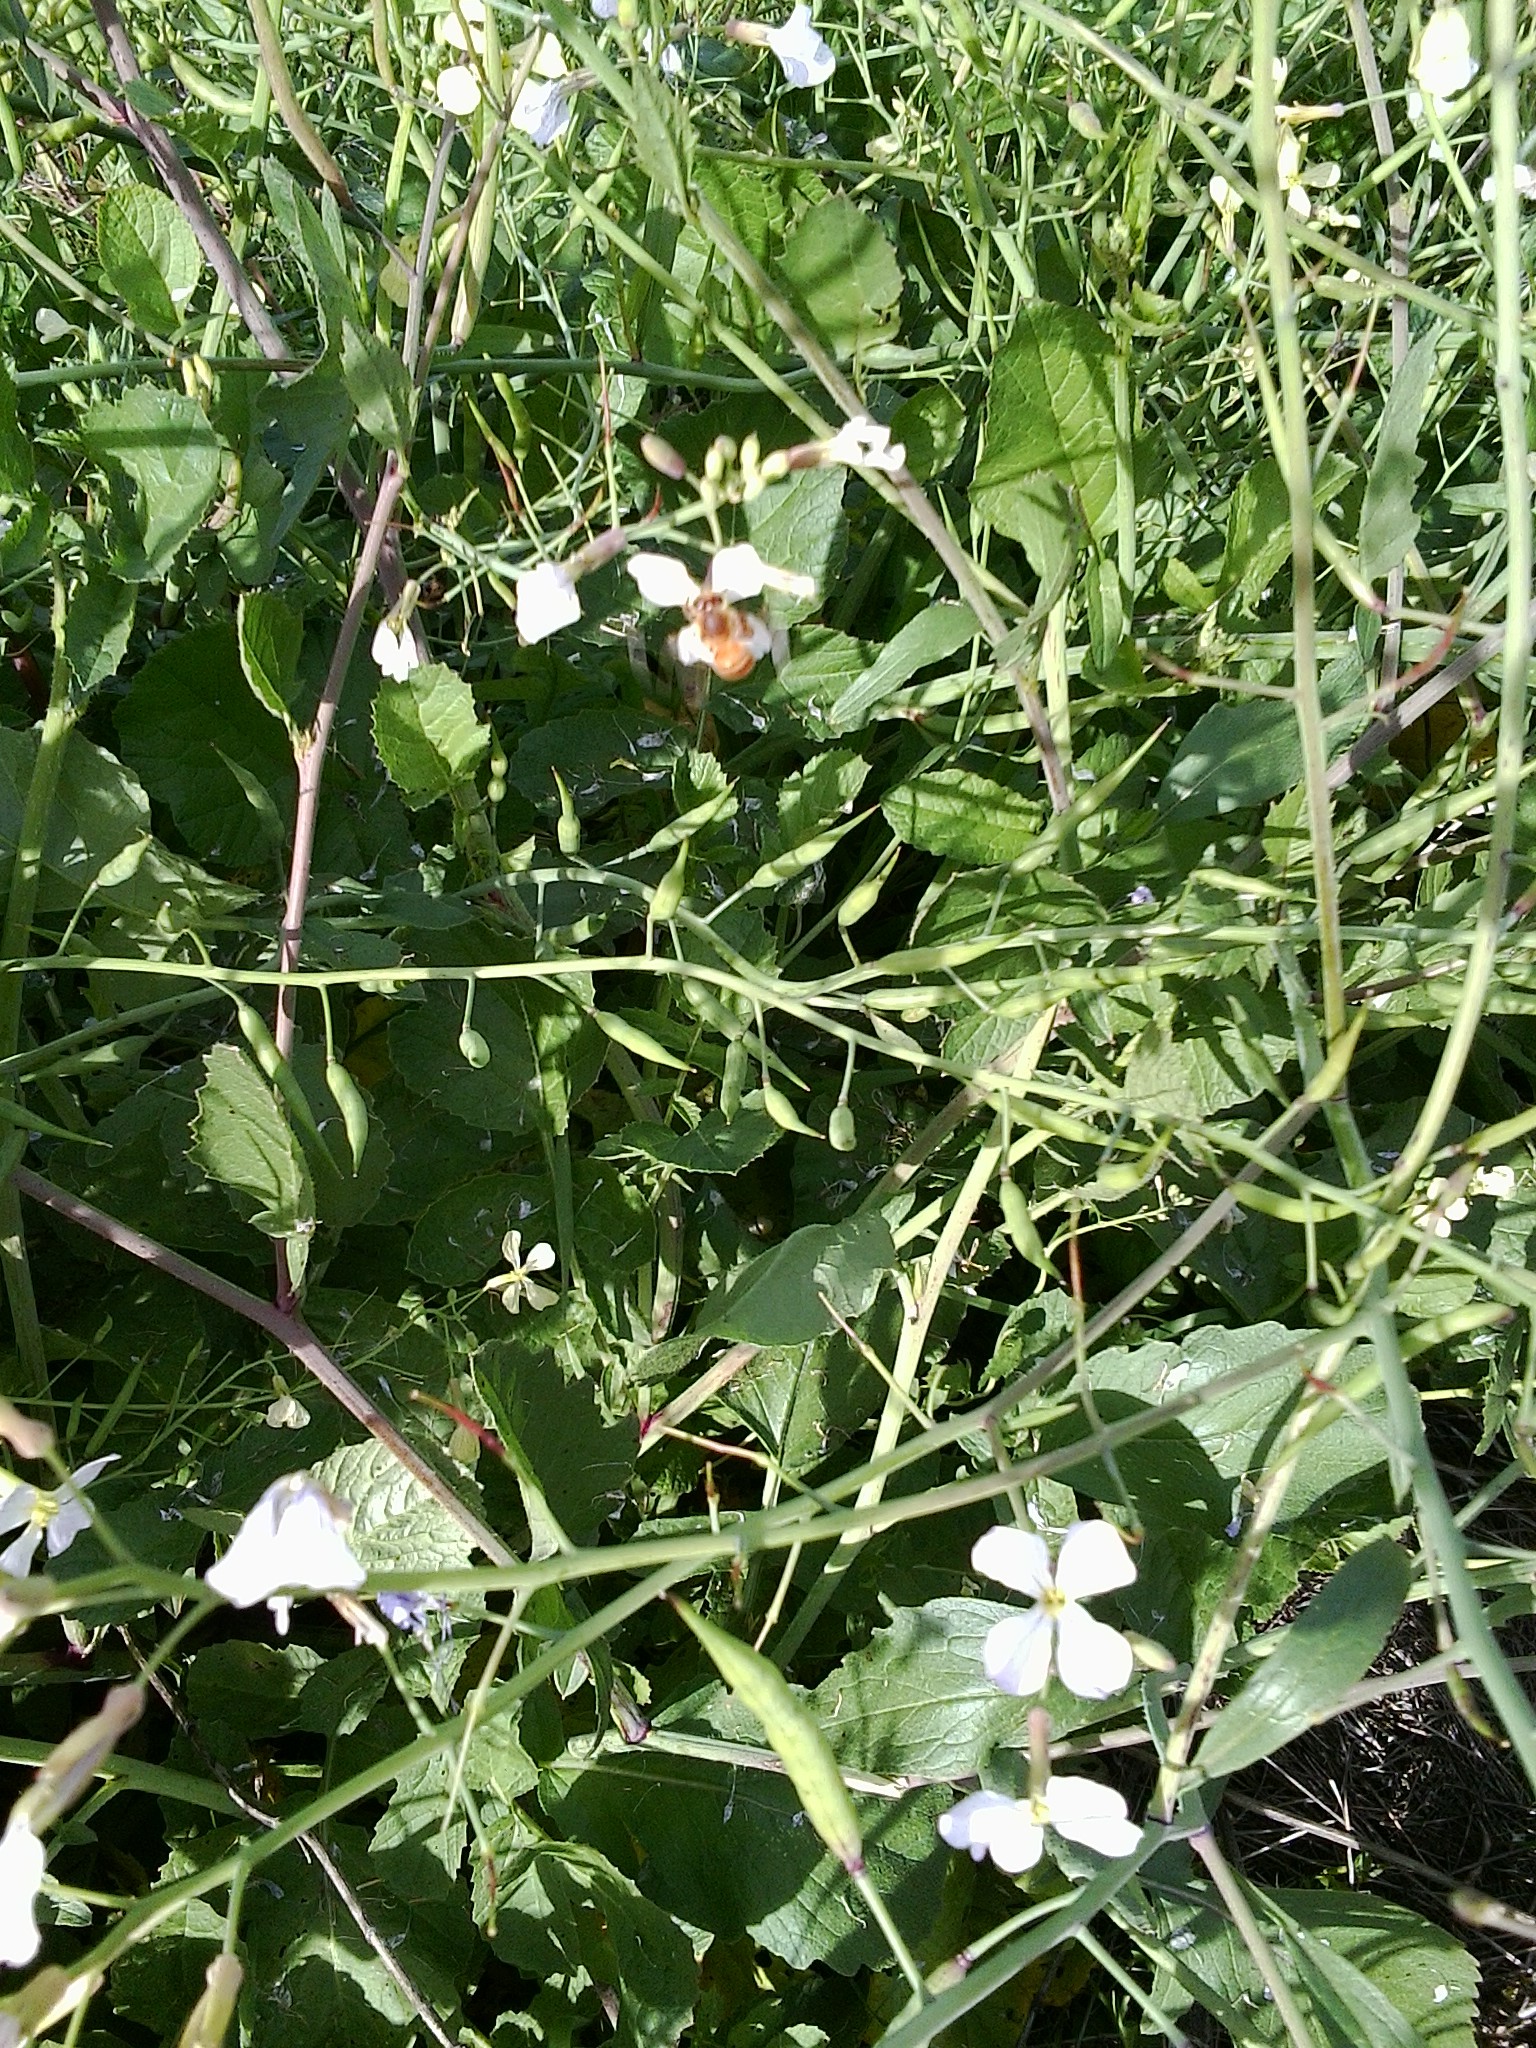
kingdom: Plantae
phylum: Tracheophyta
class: Magnoliopsida
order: Brassicales
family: Brassicaceae
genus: Raphanus
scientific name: Raphanus raphanistrum
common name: Wild radish
